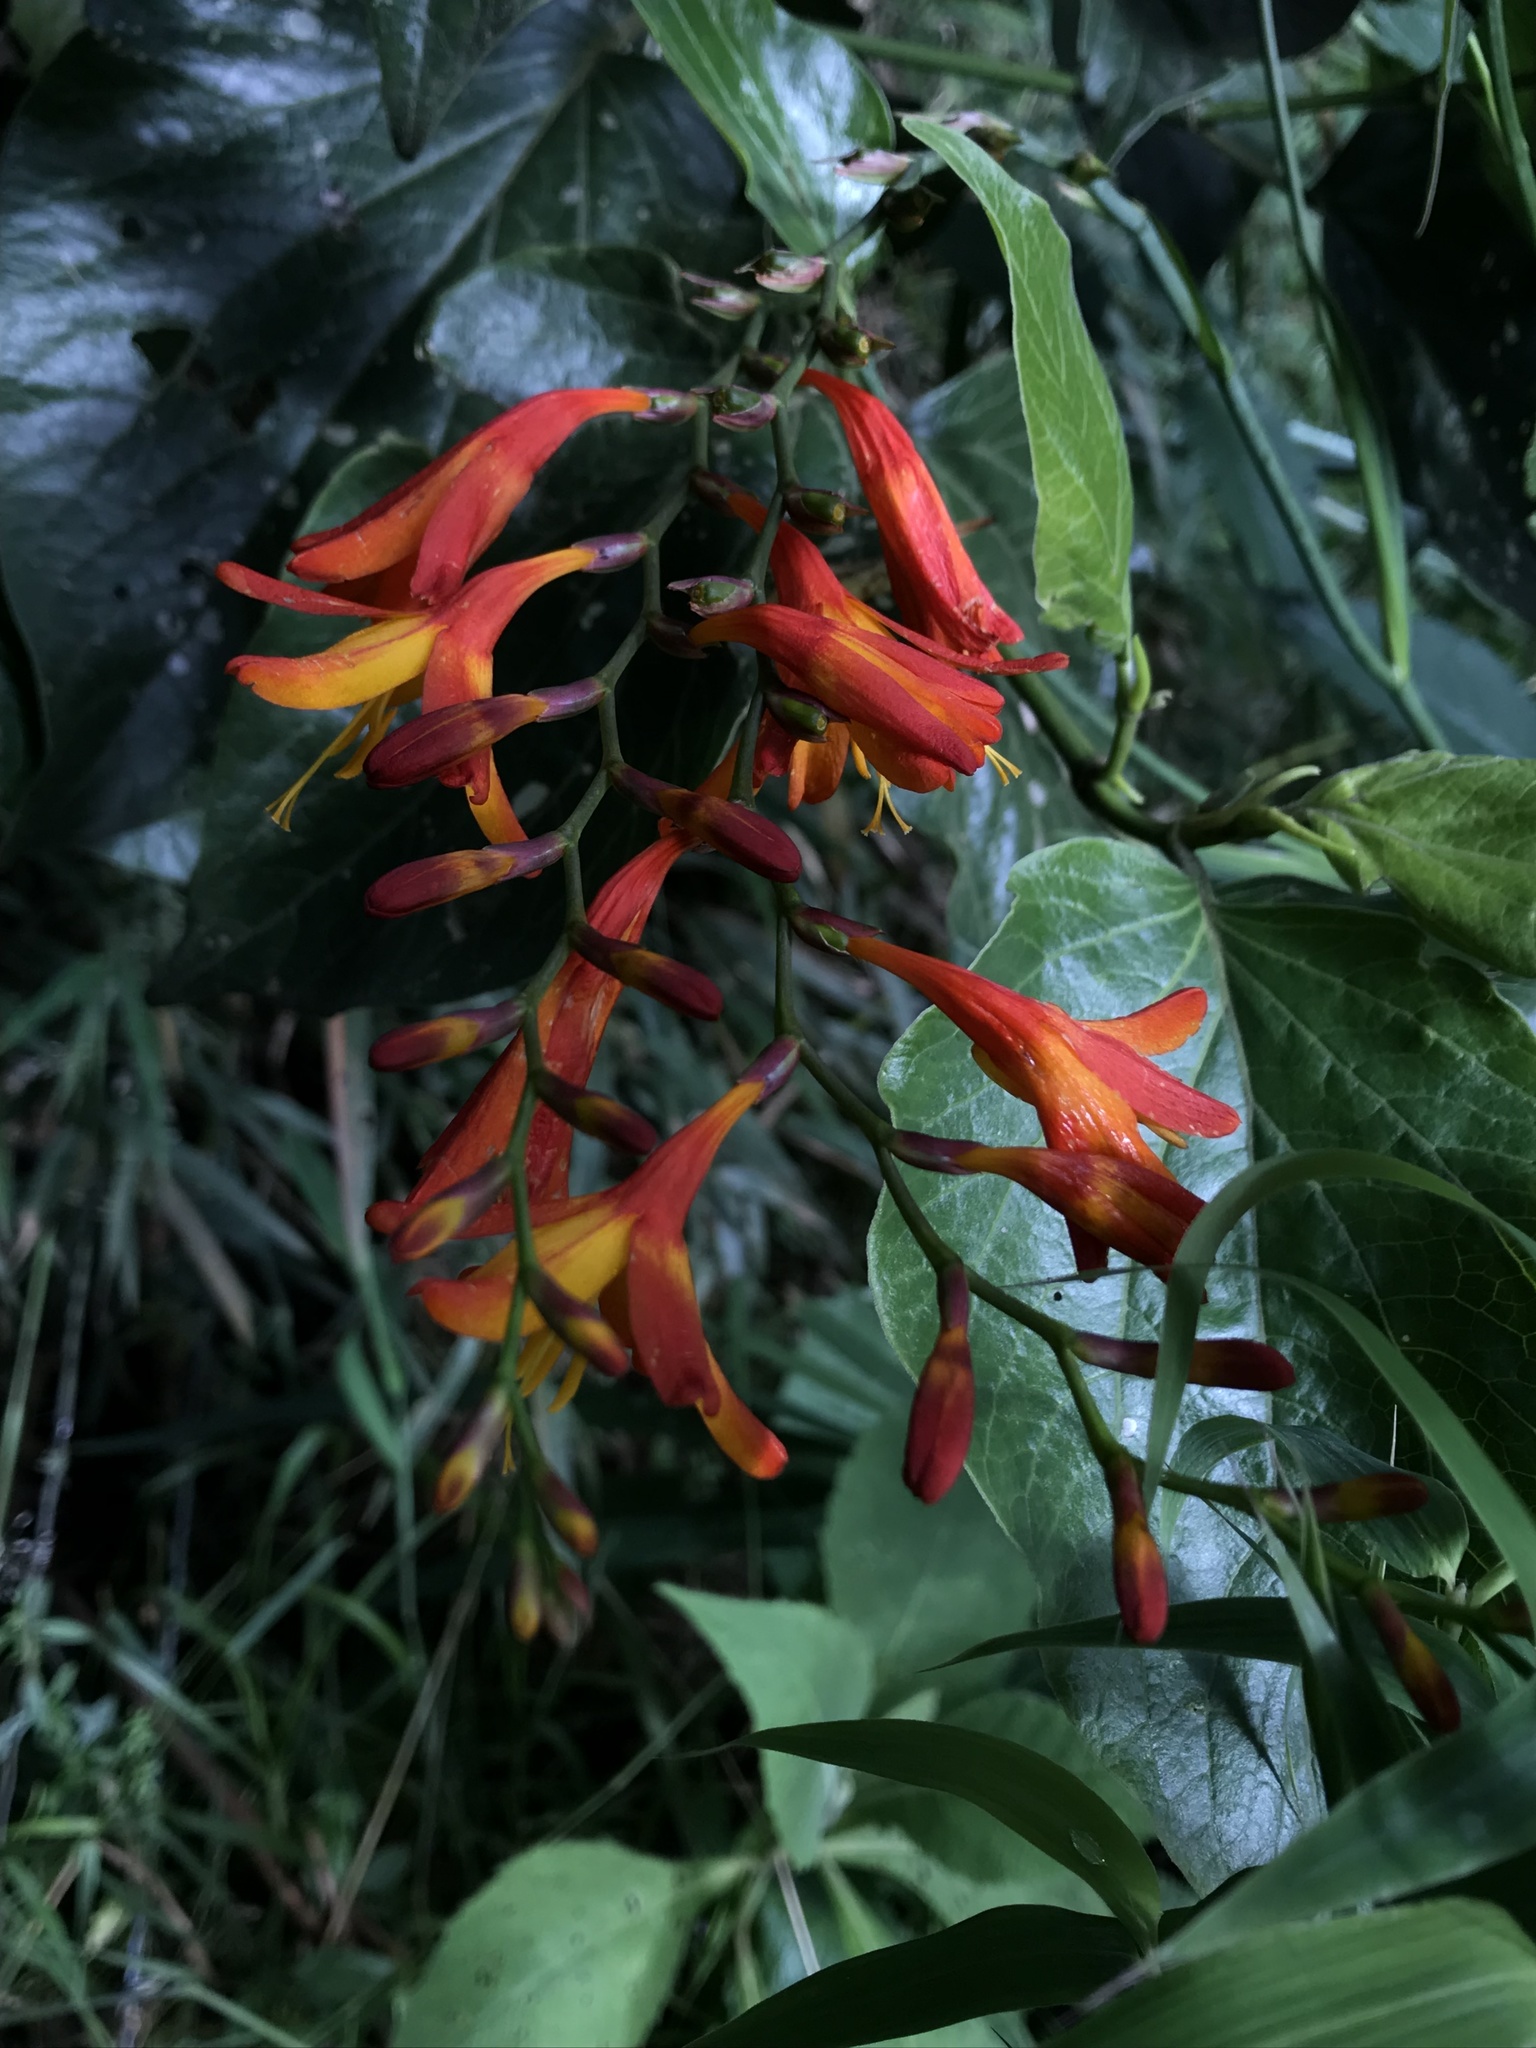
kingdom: Plantae
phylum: Tracheophyta
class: Liliopsida
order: Asparagales
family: Iridaceae
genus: Crocosmia
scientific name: Crocosmia crocosmiiflora
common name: Montbretia
